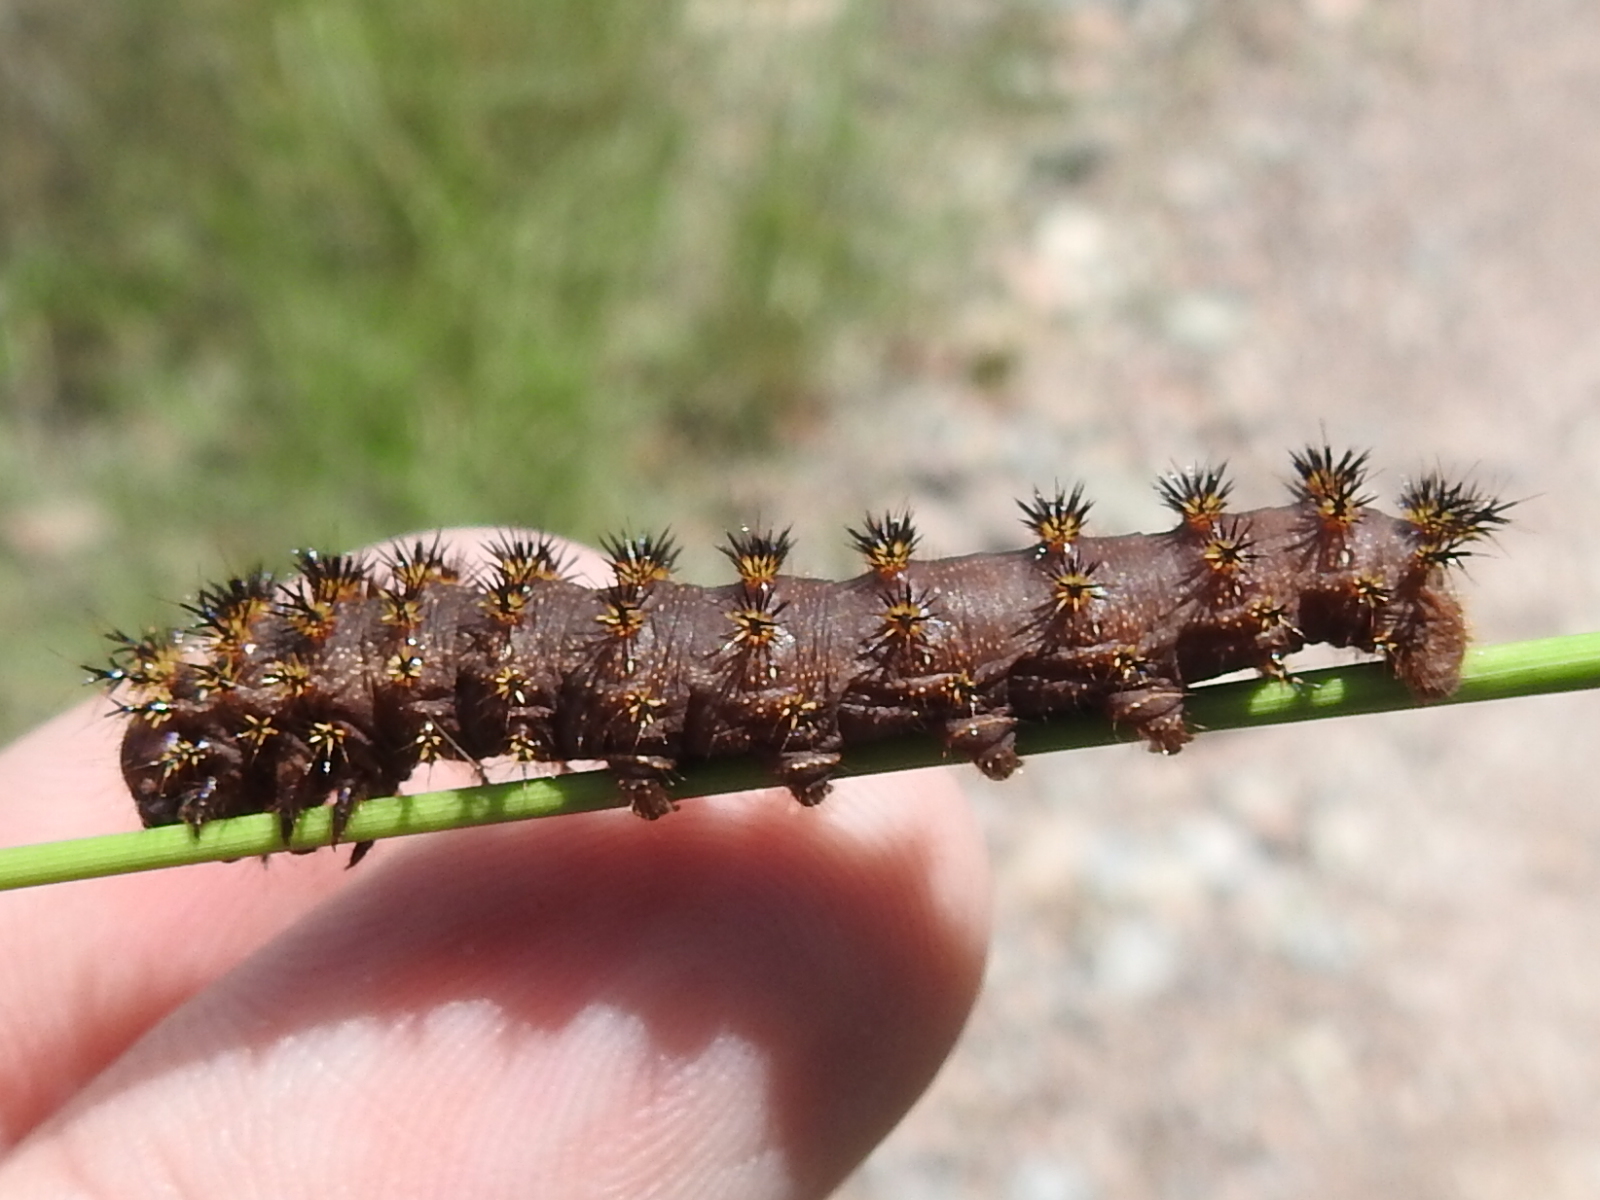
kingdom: Animalia
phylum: Arthropoda
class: Insecta
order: Lepidoptera
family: Saturniidae
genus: Hemileuca
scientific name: Hemileuca hualapai
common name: Hualapai buckmoth
